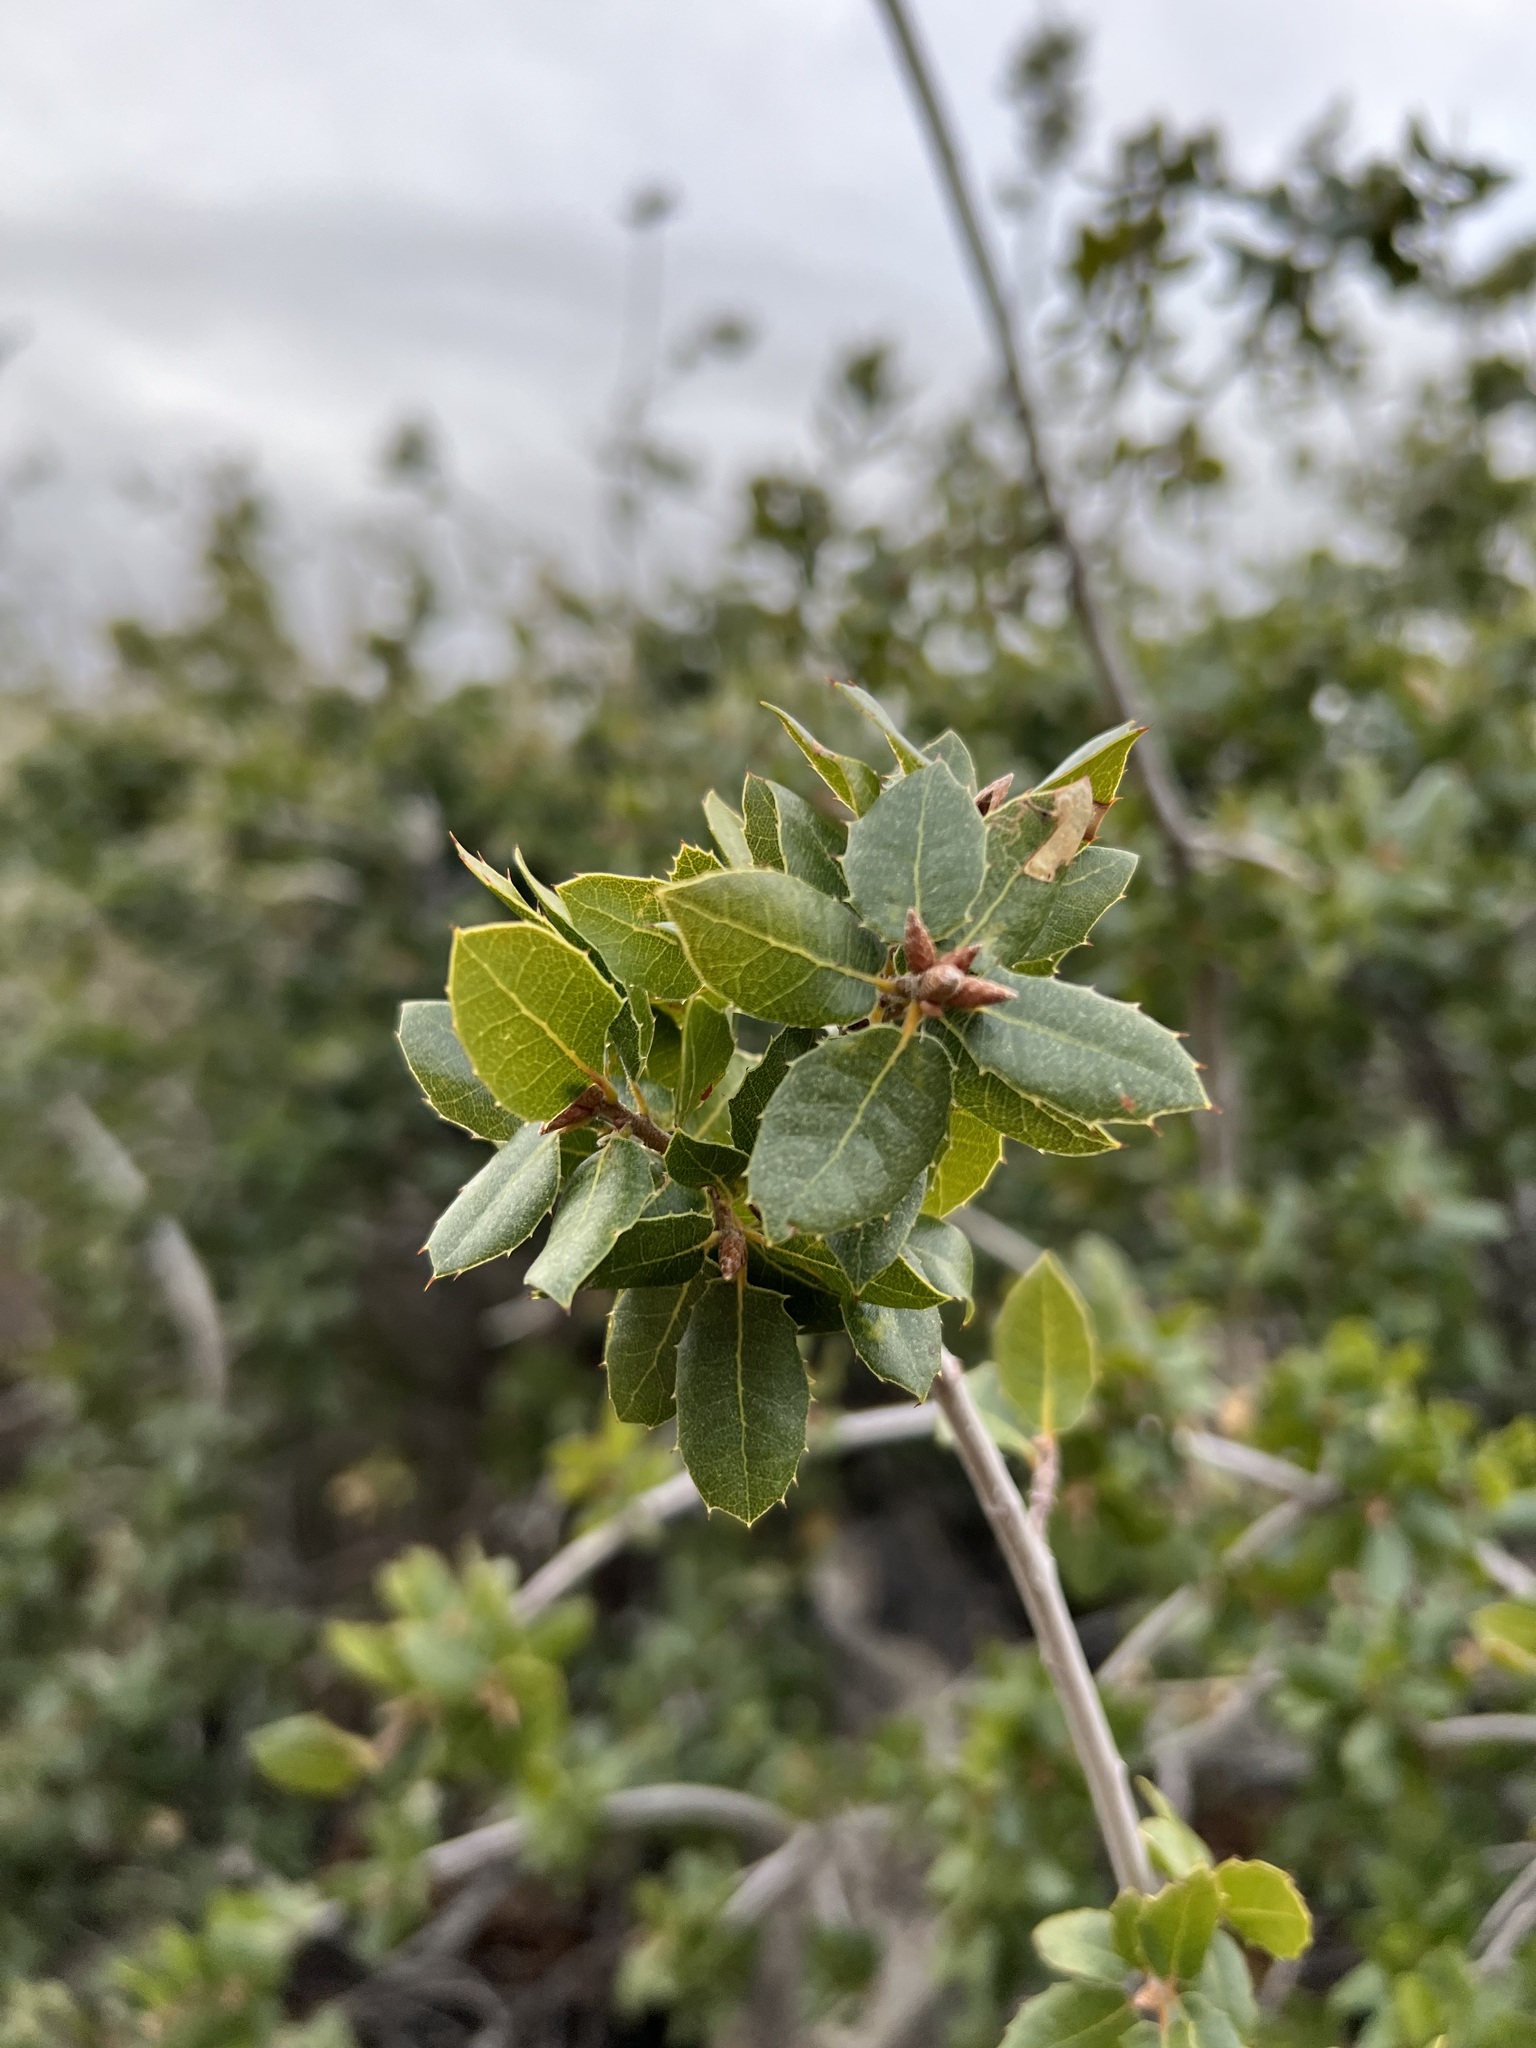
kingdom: Plantae
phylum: Tracheophyta
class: Magnoliopsida
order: Fagales
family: Fagaceae
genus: Quercus
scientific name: Quercus wislizeni
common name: Interior live oak
